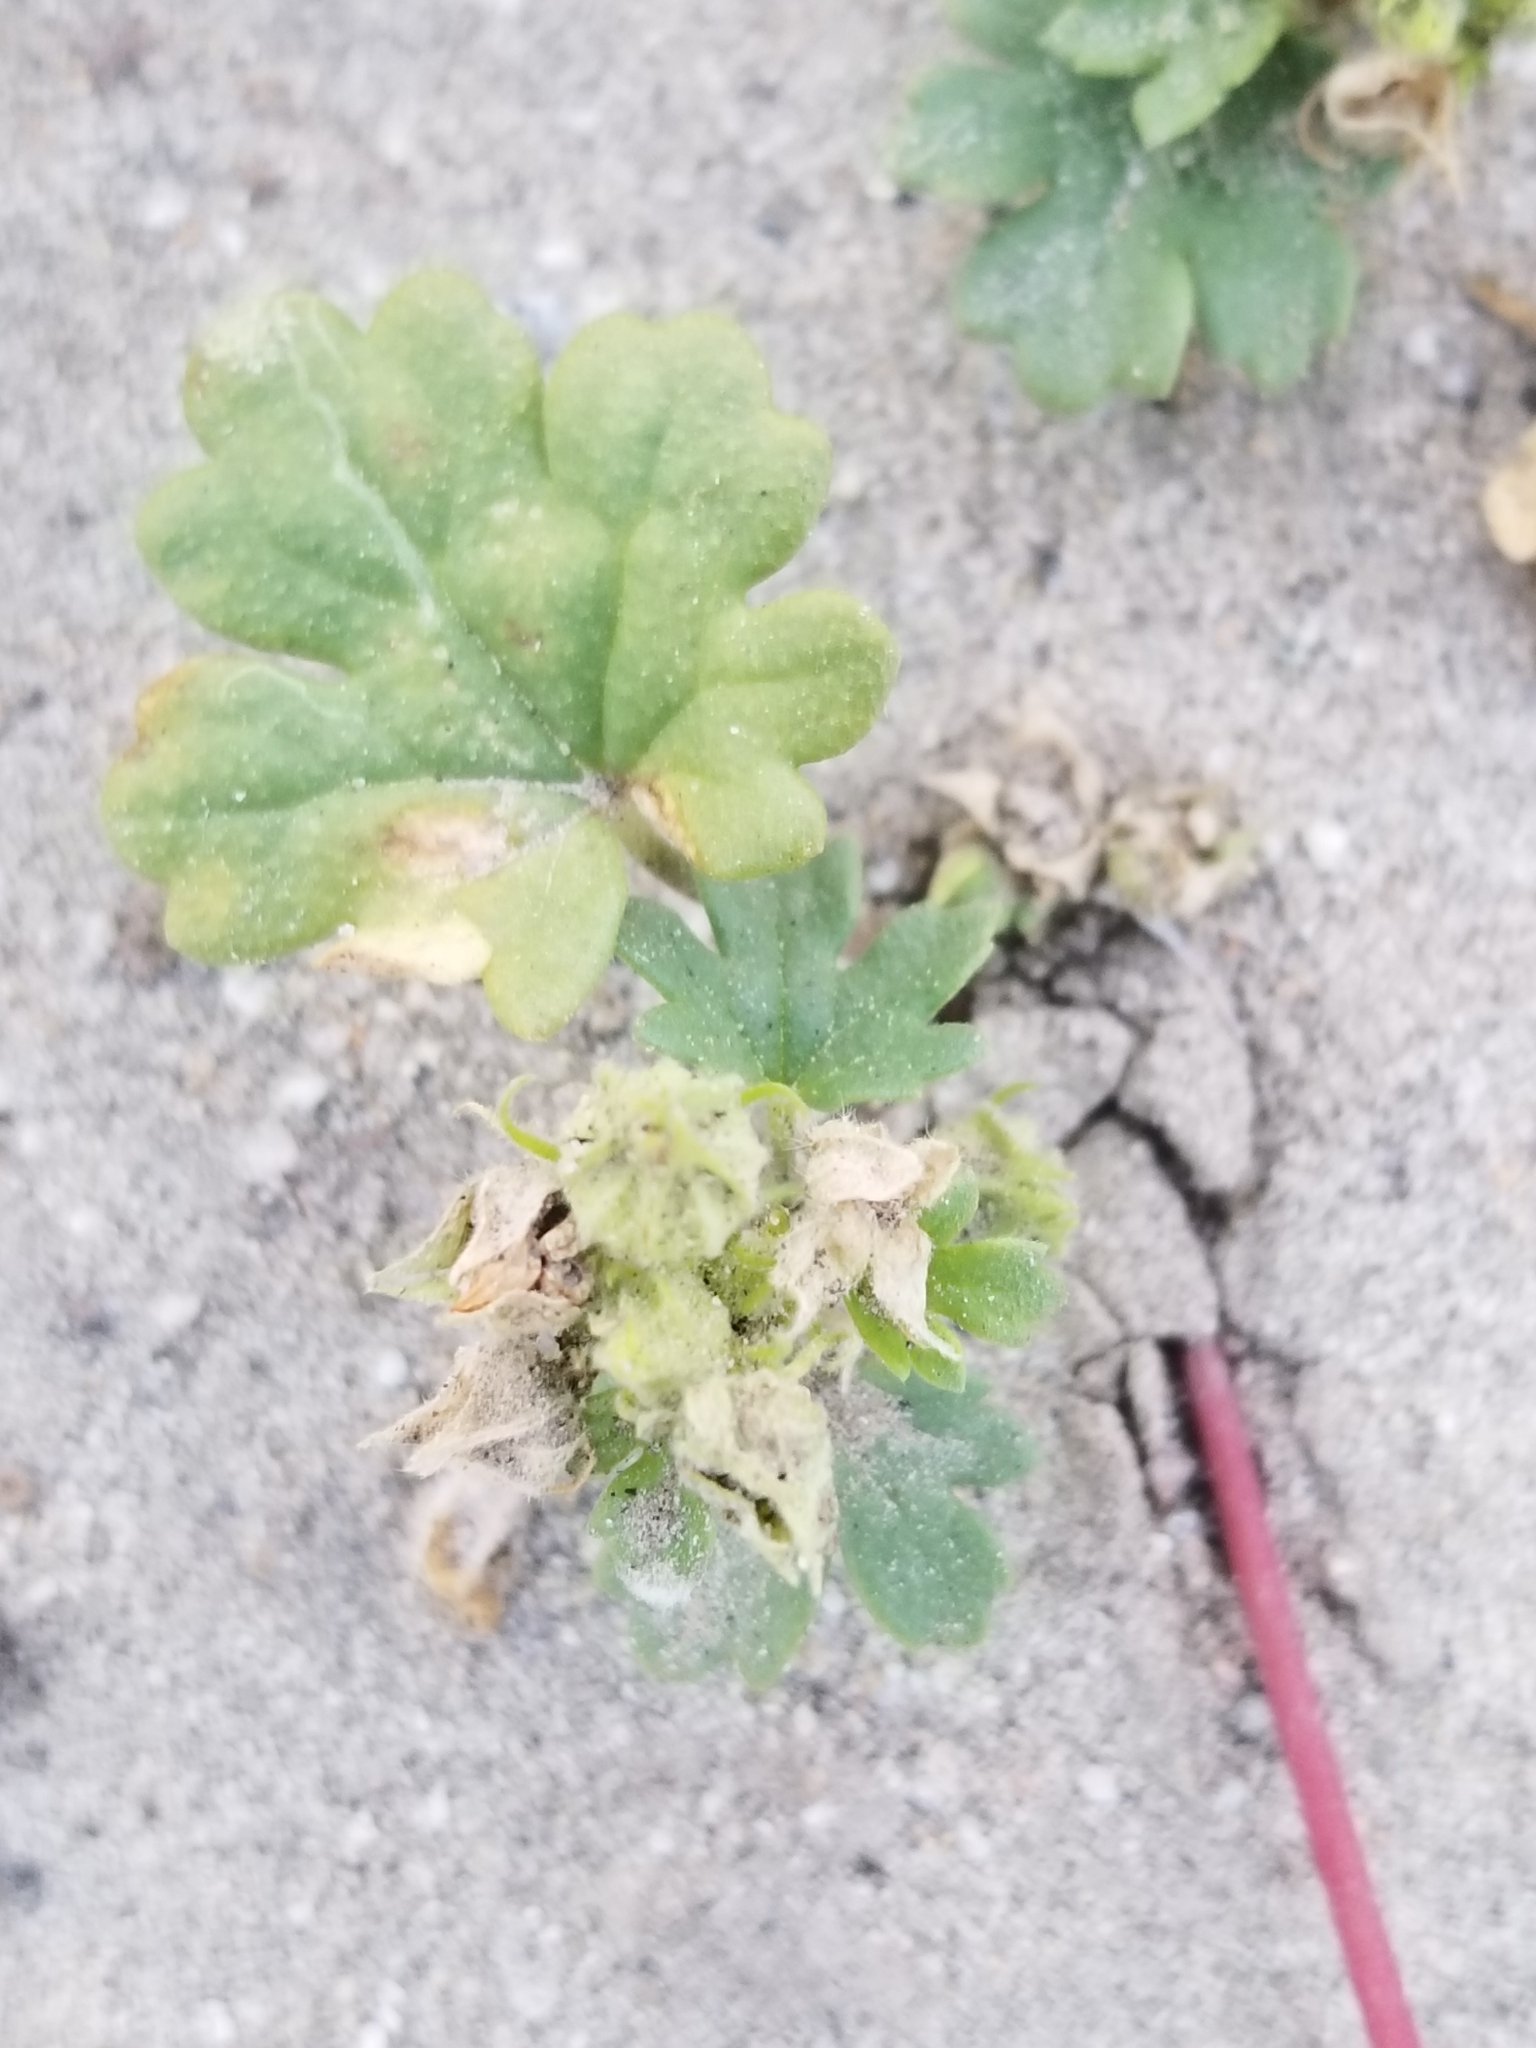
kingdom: Plantae
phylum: Tracheophyta
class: Magnoliopsida
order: Malvales
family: Malvaceae
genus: Eremalche
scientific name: Eremalche exilis
